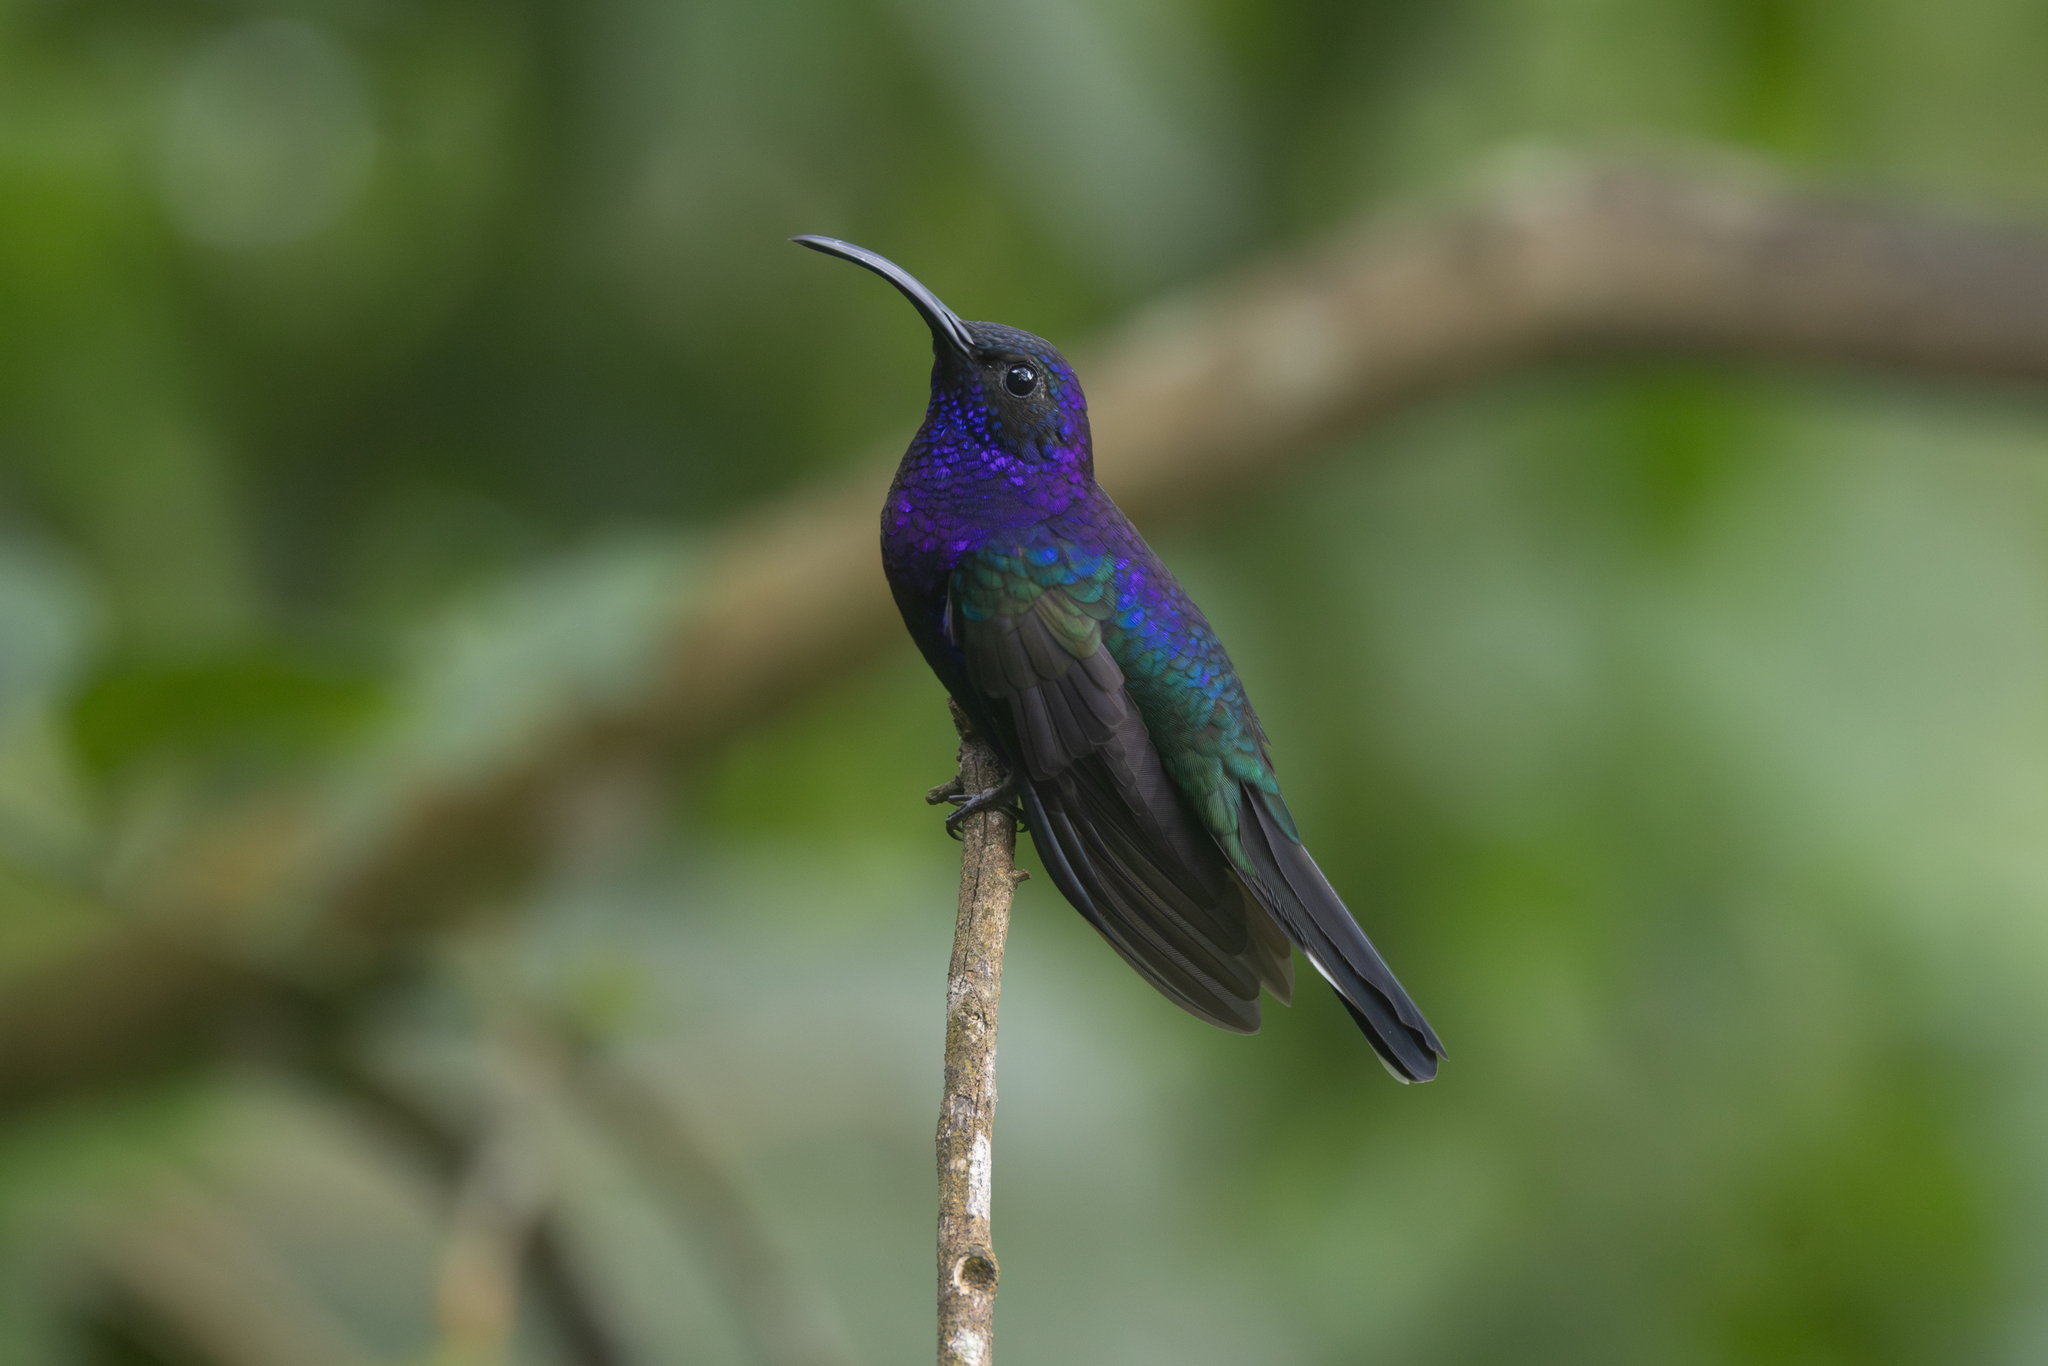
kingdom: Animalia
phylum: Chordata
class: Aves
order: Apodiformes
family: Trochilidae
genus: Campylopterus
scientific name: Campylopterus hemileucurus
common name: Violet sabrewing
